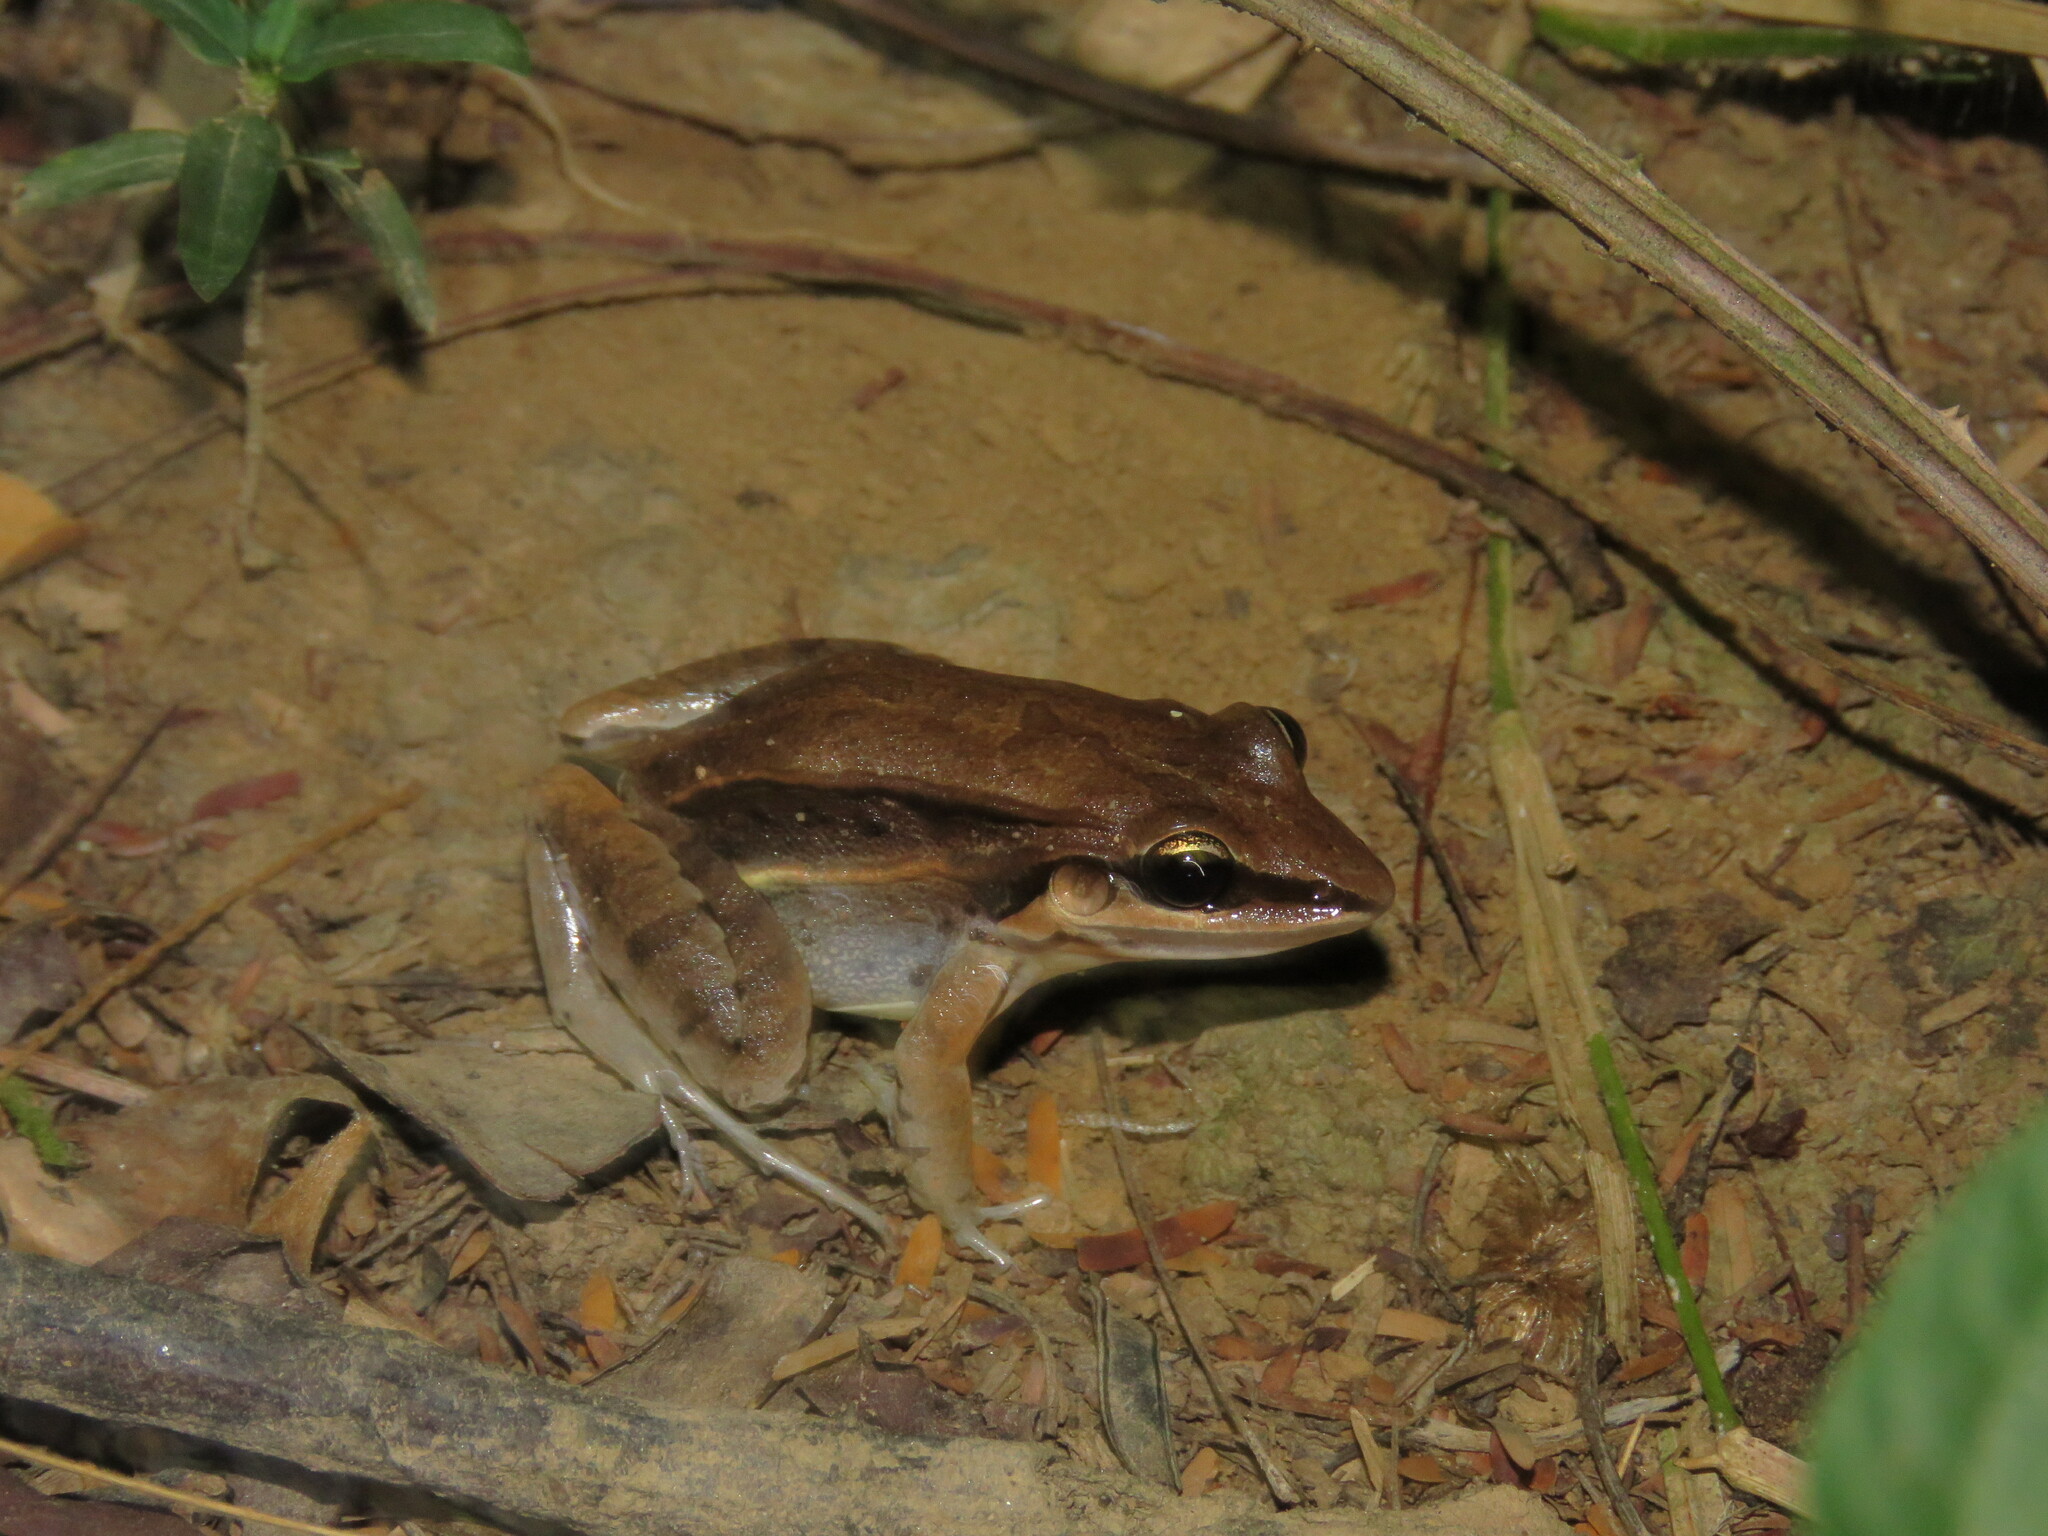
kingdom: Animalia
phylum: Chordata
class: Amphibia
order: Anura
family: Leptodactylidae
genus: Leptodactylus
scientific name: Leptodactylus mystaceus
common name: Amazonian white-lipped frog
